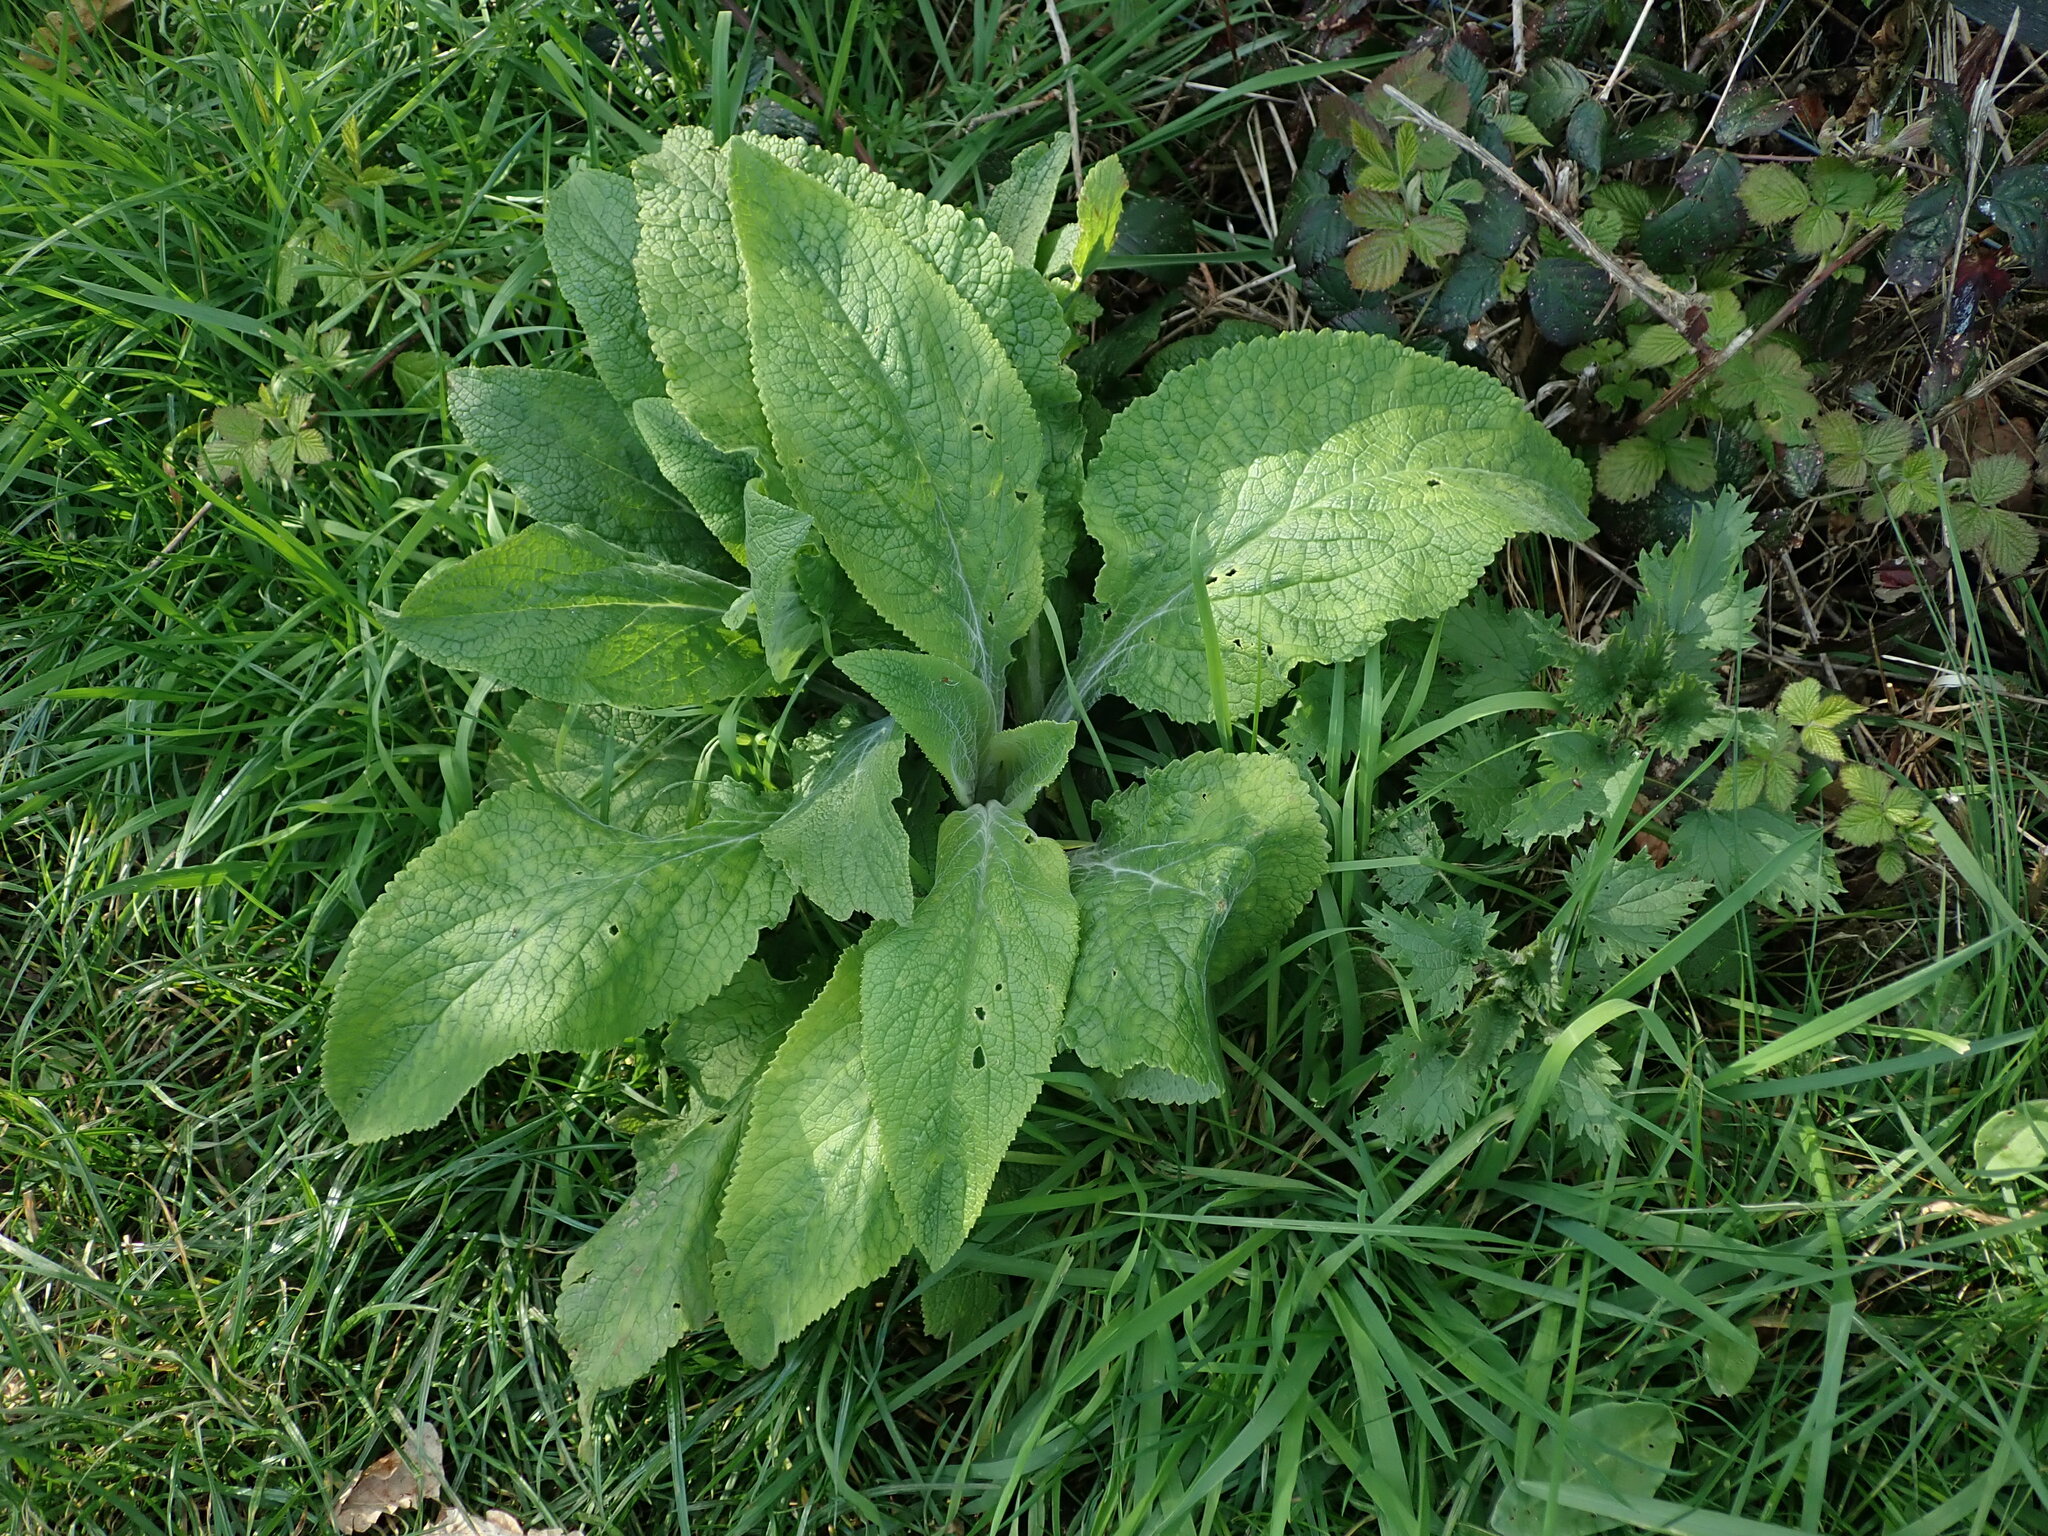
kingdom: Plantae
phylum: Tracheophyta
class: Magnoliopsida
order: Lamiales
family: Plantaginaceae
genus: Digitalis
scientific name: Digitalis purpurea
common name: Foxglove
